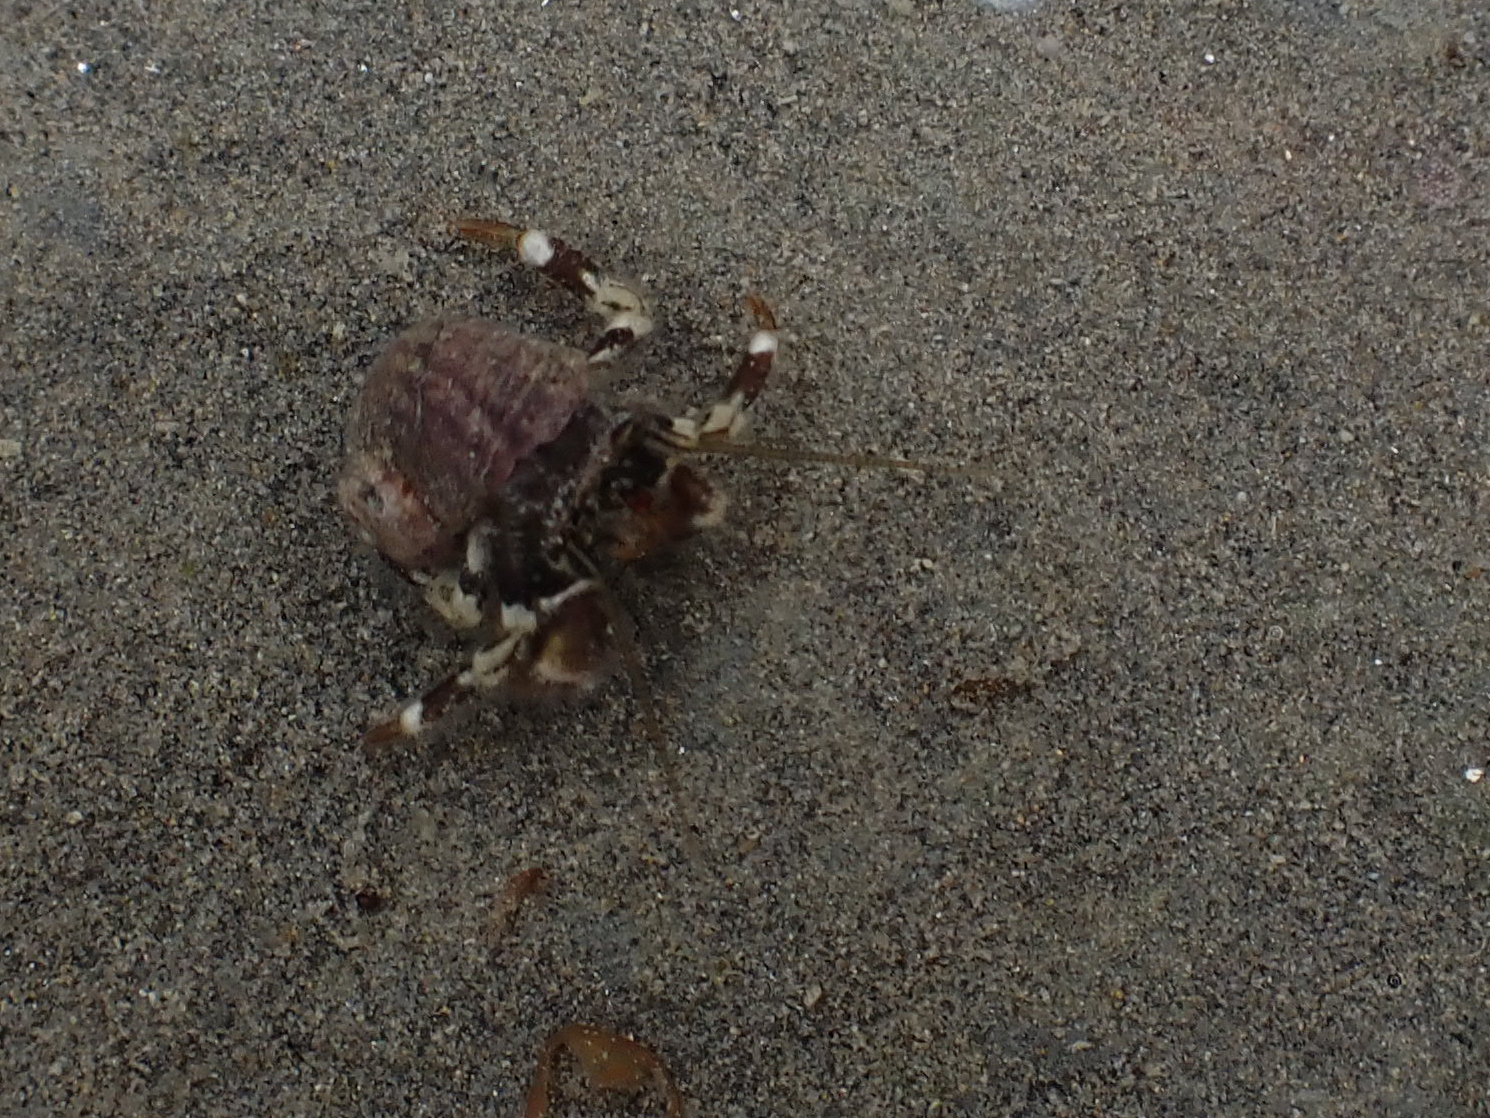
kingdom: Animalia
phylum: Arthropoda
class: Malacostraca
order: Decapoda
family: Paguridae
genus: Pagurus
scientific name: Pagurus hirsutiusculus
